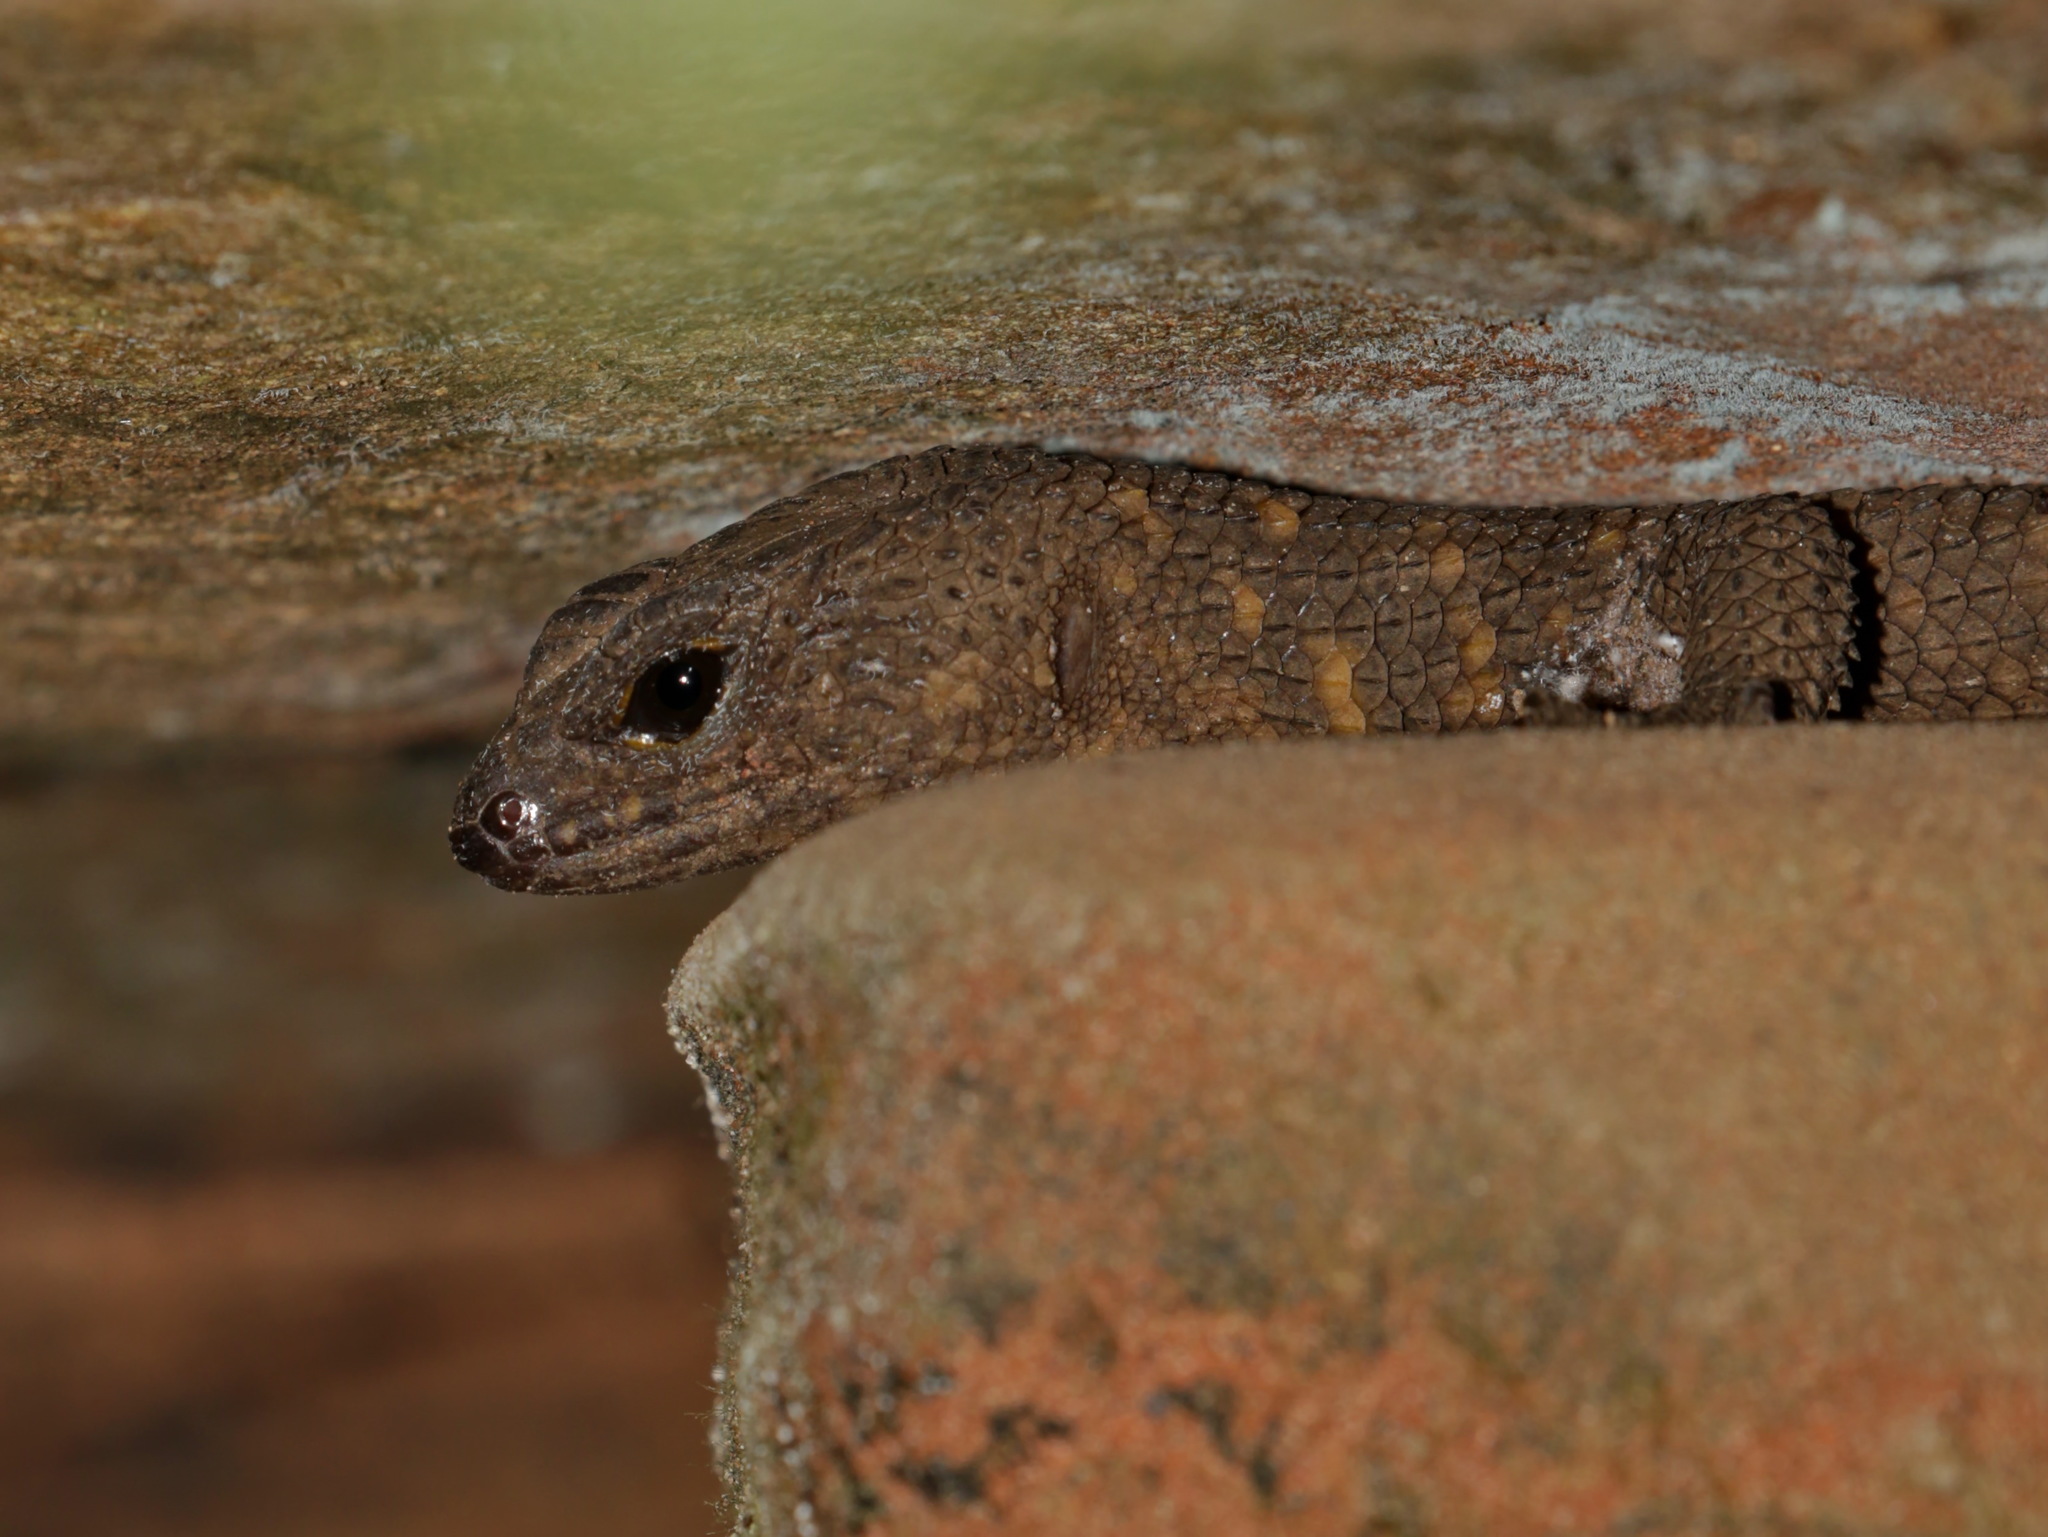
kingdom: Animalia
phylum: Chordata
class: Squamata
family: Scincidae
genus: Tropidophorus
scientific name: Tropidophorus latiscutatus
